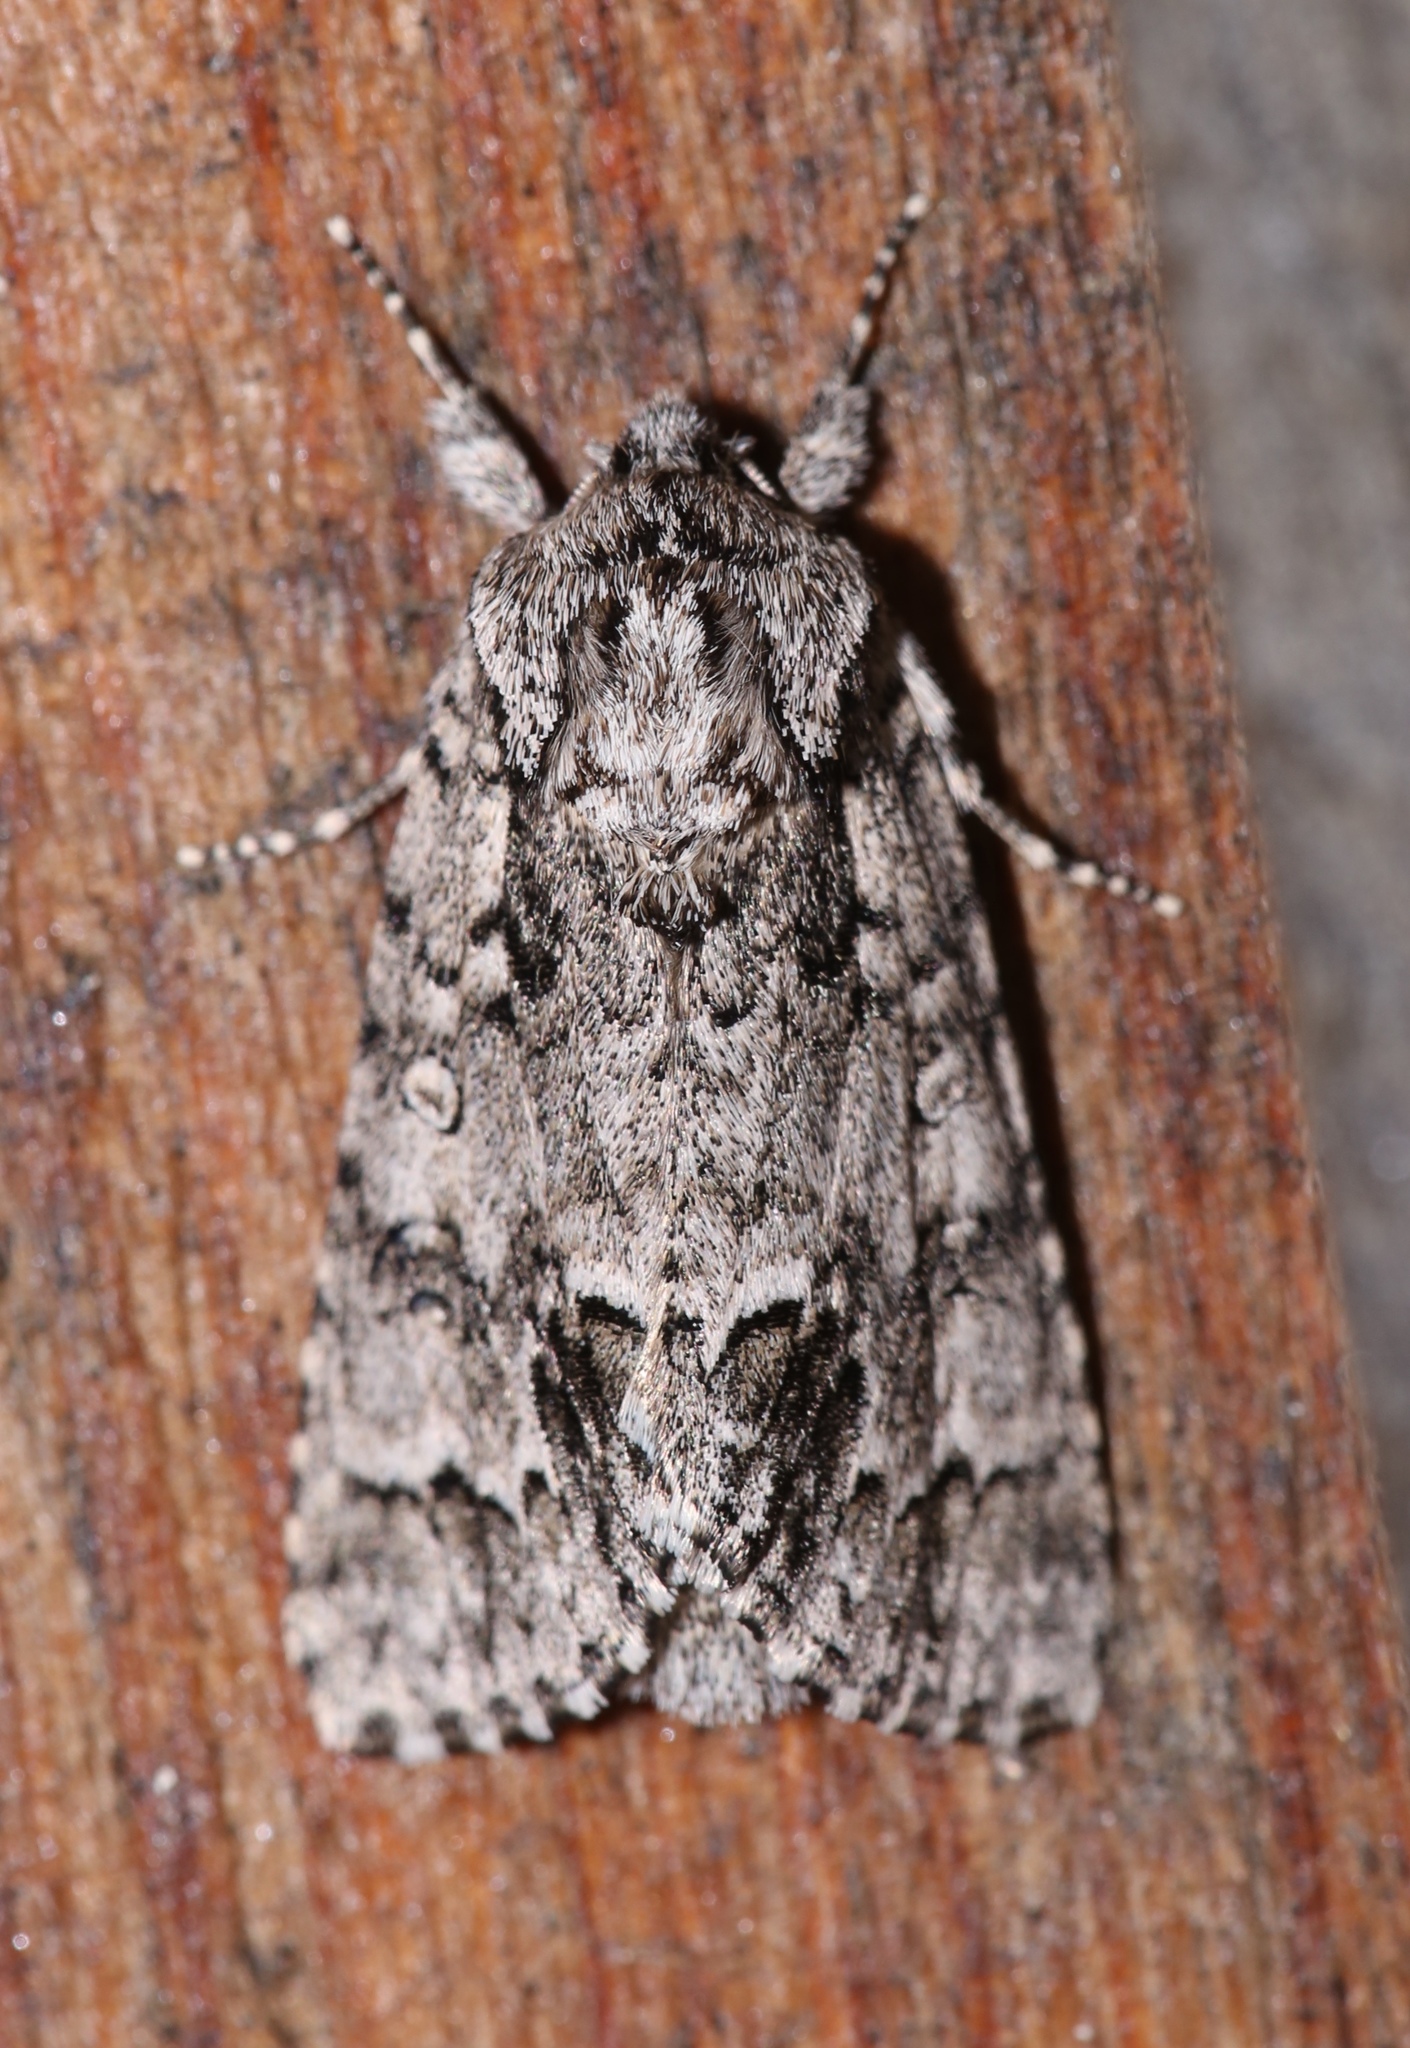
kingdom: Animalia
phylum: Arthropoda
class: Insecta
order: Lepidoptera
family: Noctuidae
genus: Acronicta
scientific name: Acronicta impressa
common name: Impressed dagger
